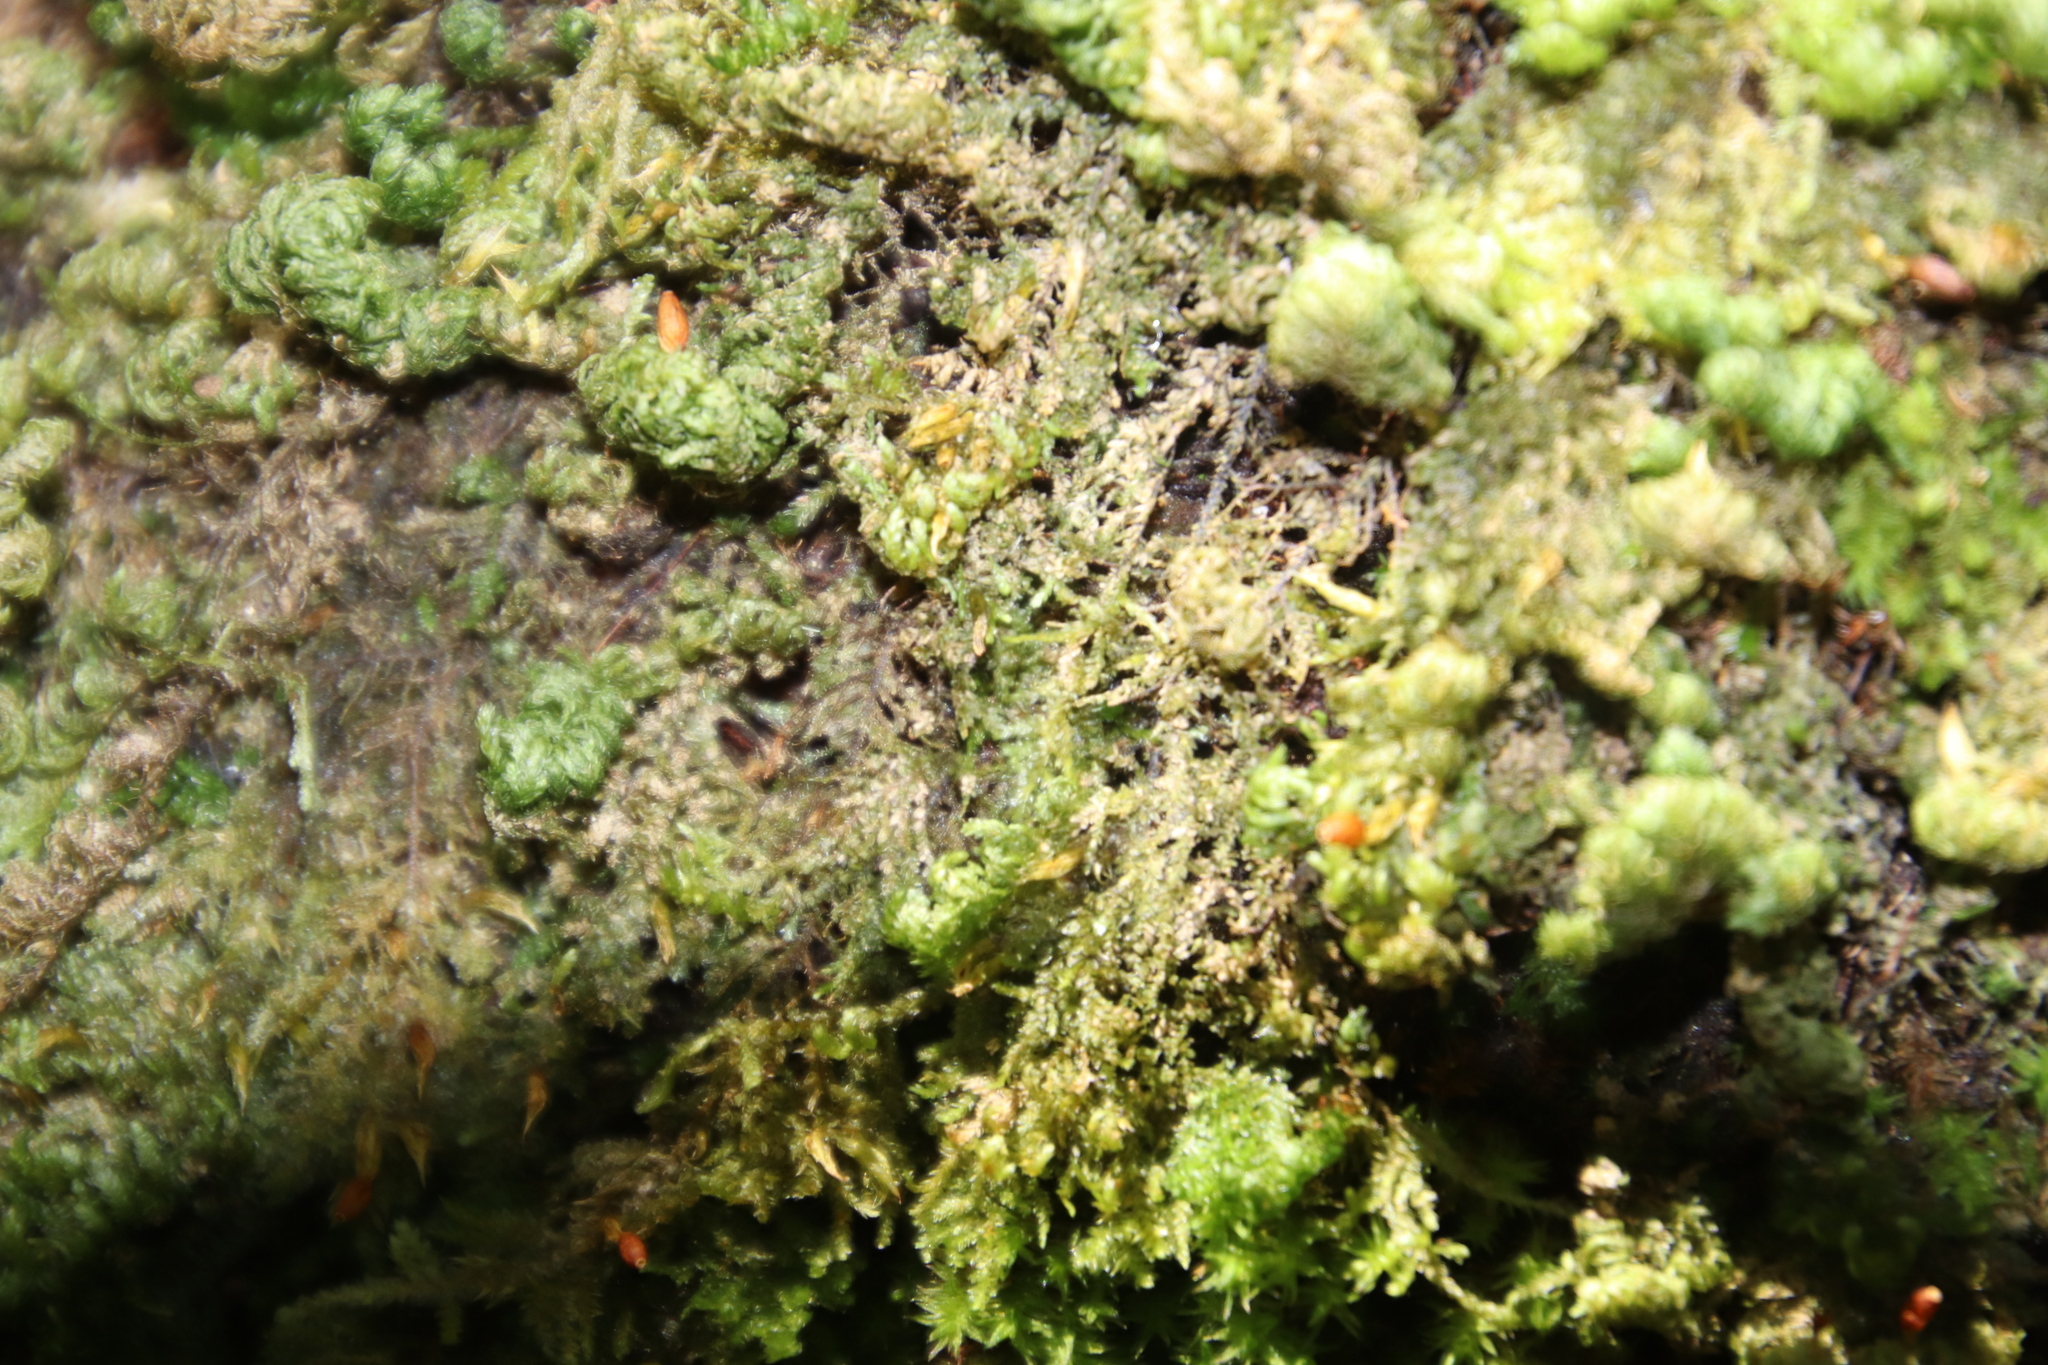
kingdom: Plantae
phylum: Bryophyta
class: Bryopsida
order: Hypnales
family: Neckeraceae
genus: Leptodon
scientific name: Leptodon smithii
